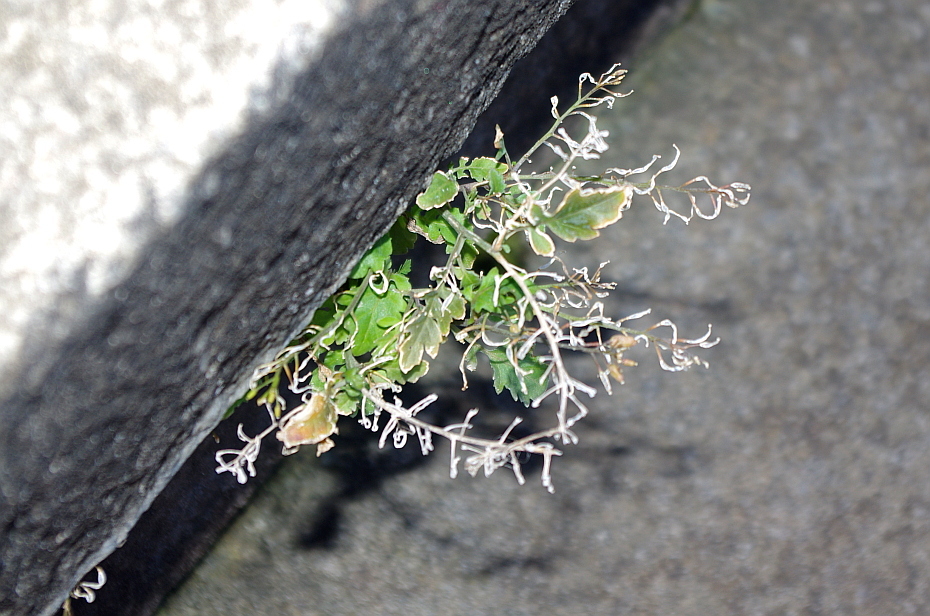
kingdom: Plantae
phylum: Tracheophyta
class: Magnoliopsida
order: Brassicales
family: Brassicaceae
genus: Rorippa
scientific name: Rorippa palustris
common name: Marsh yellow-cress
